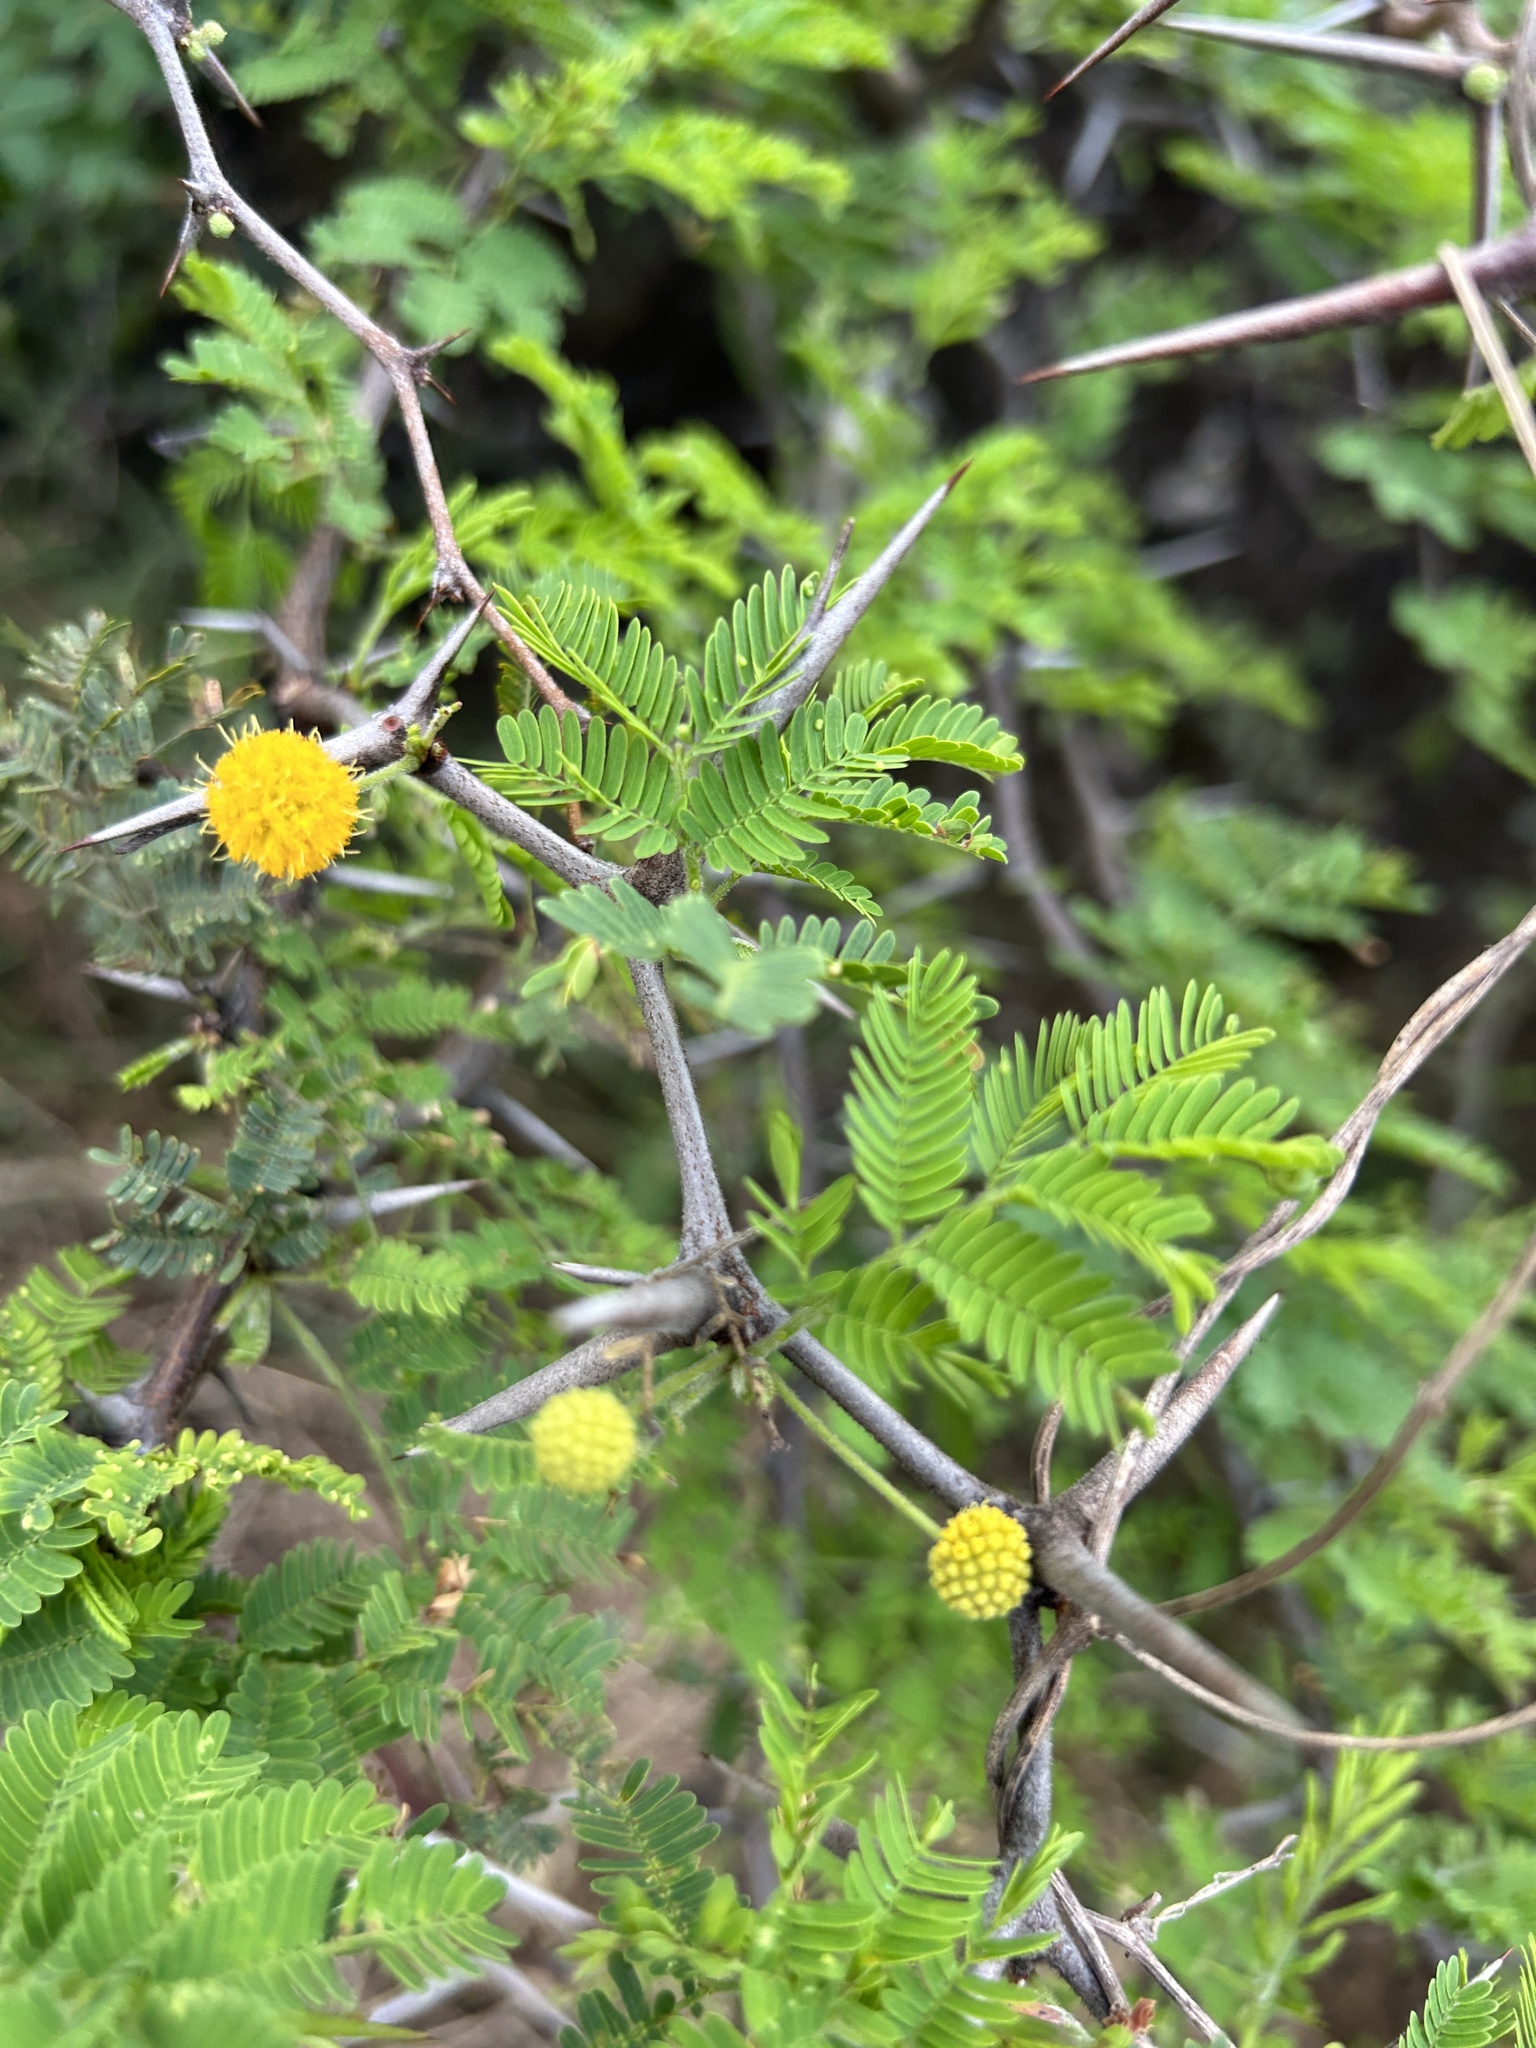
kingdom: Plantae
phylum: Tracheophyta
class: Magnoliopsida
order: Fabales
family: Fabaceae
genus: Vachellia
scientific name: Vachellia tortuosa
